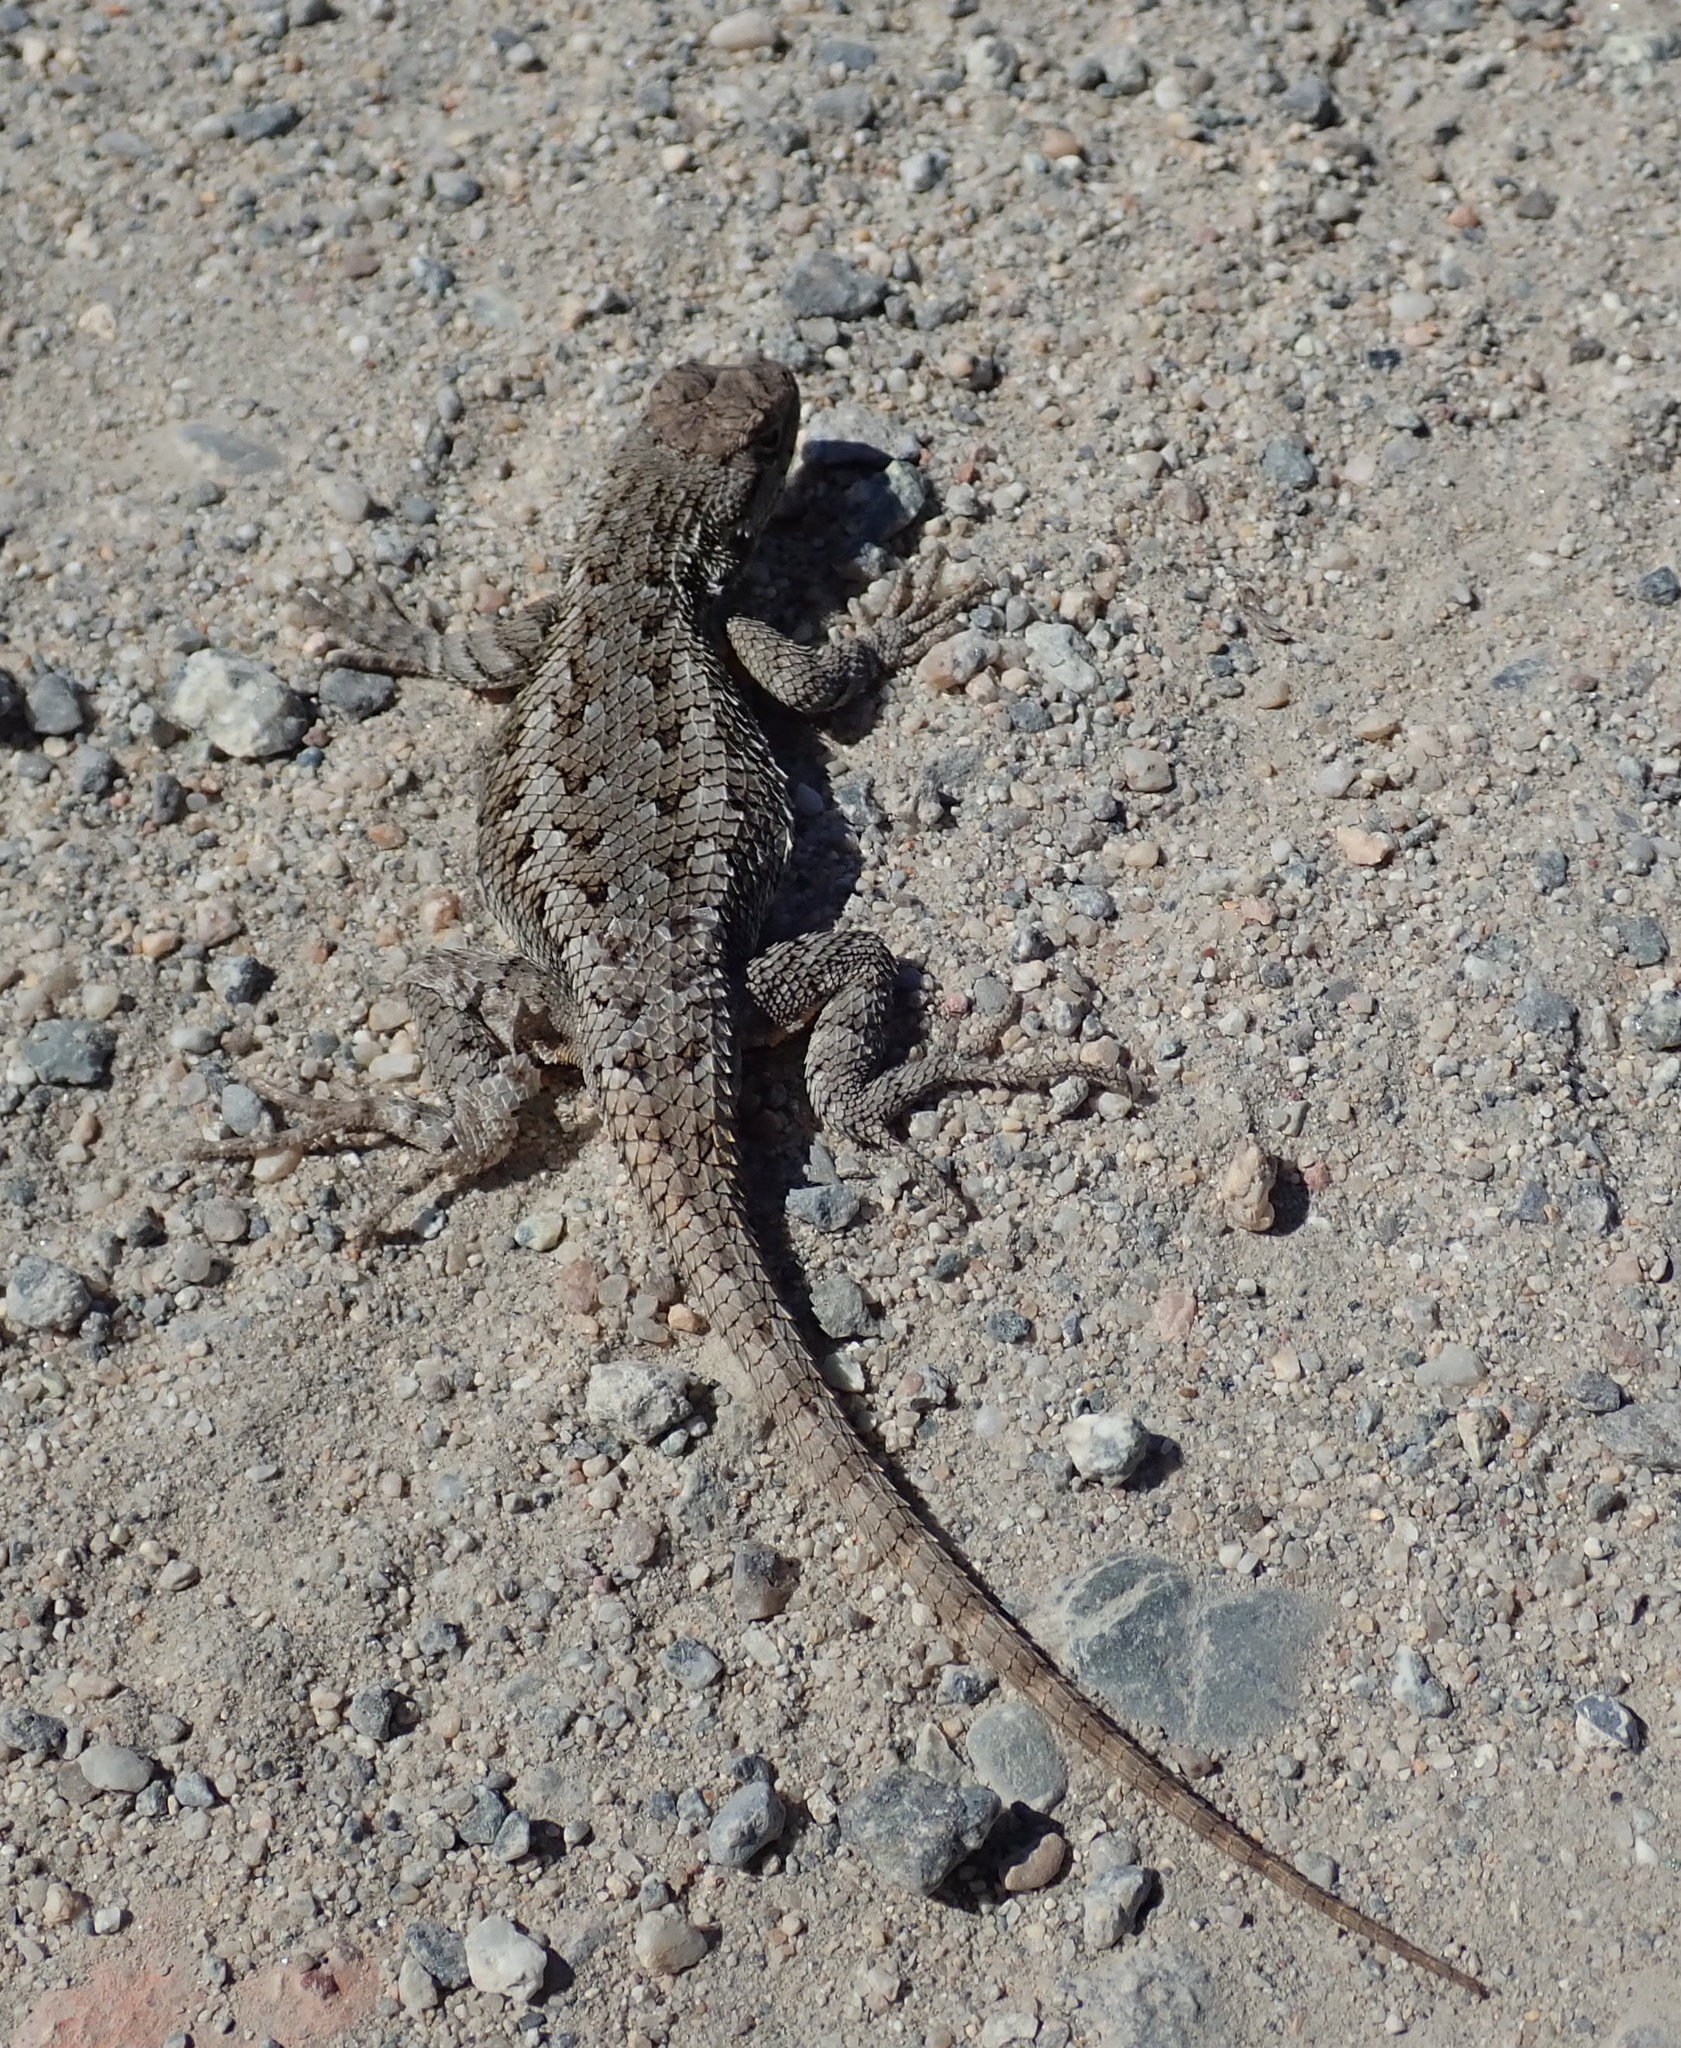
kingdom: Animalia
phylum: Chordata
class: Squamata
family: Phrynosomatidae
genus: Sceloporus
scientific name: Sceloporus occidentalis
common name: Western fence lizard
